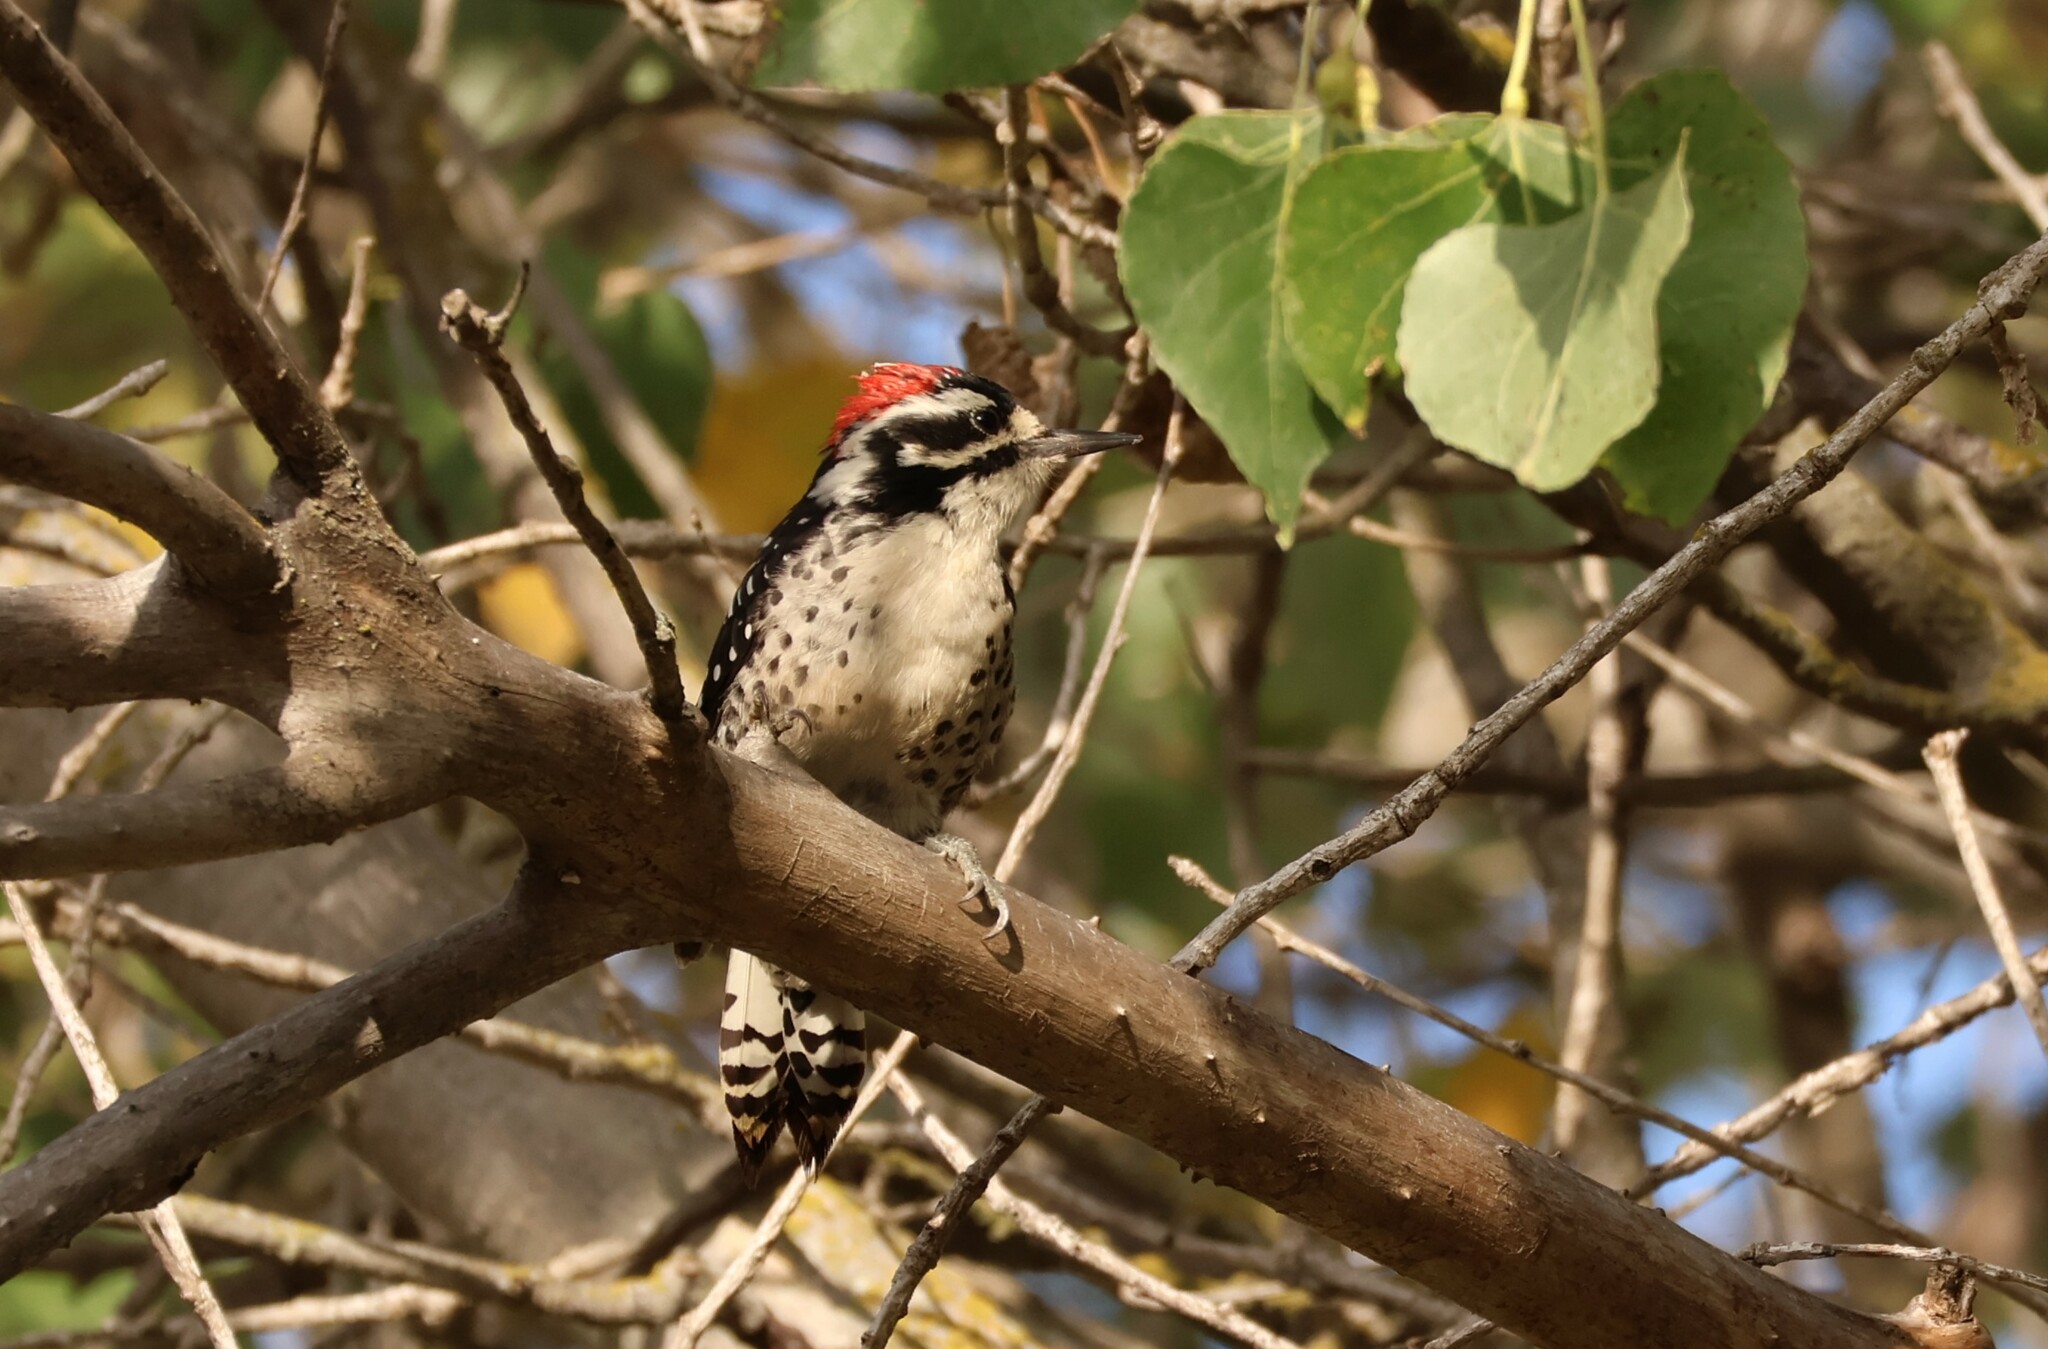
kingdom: Animalia
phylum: Chordata
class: Aves
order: Piciformes
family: Picidae
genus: Dryobates
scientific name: Dryobates nuttallii
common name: Nuttall's woodpecker
